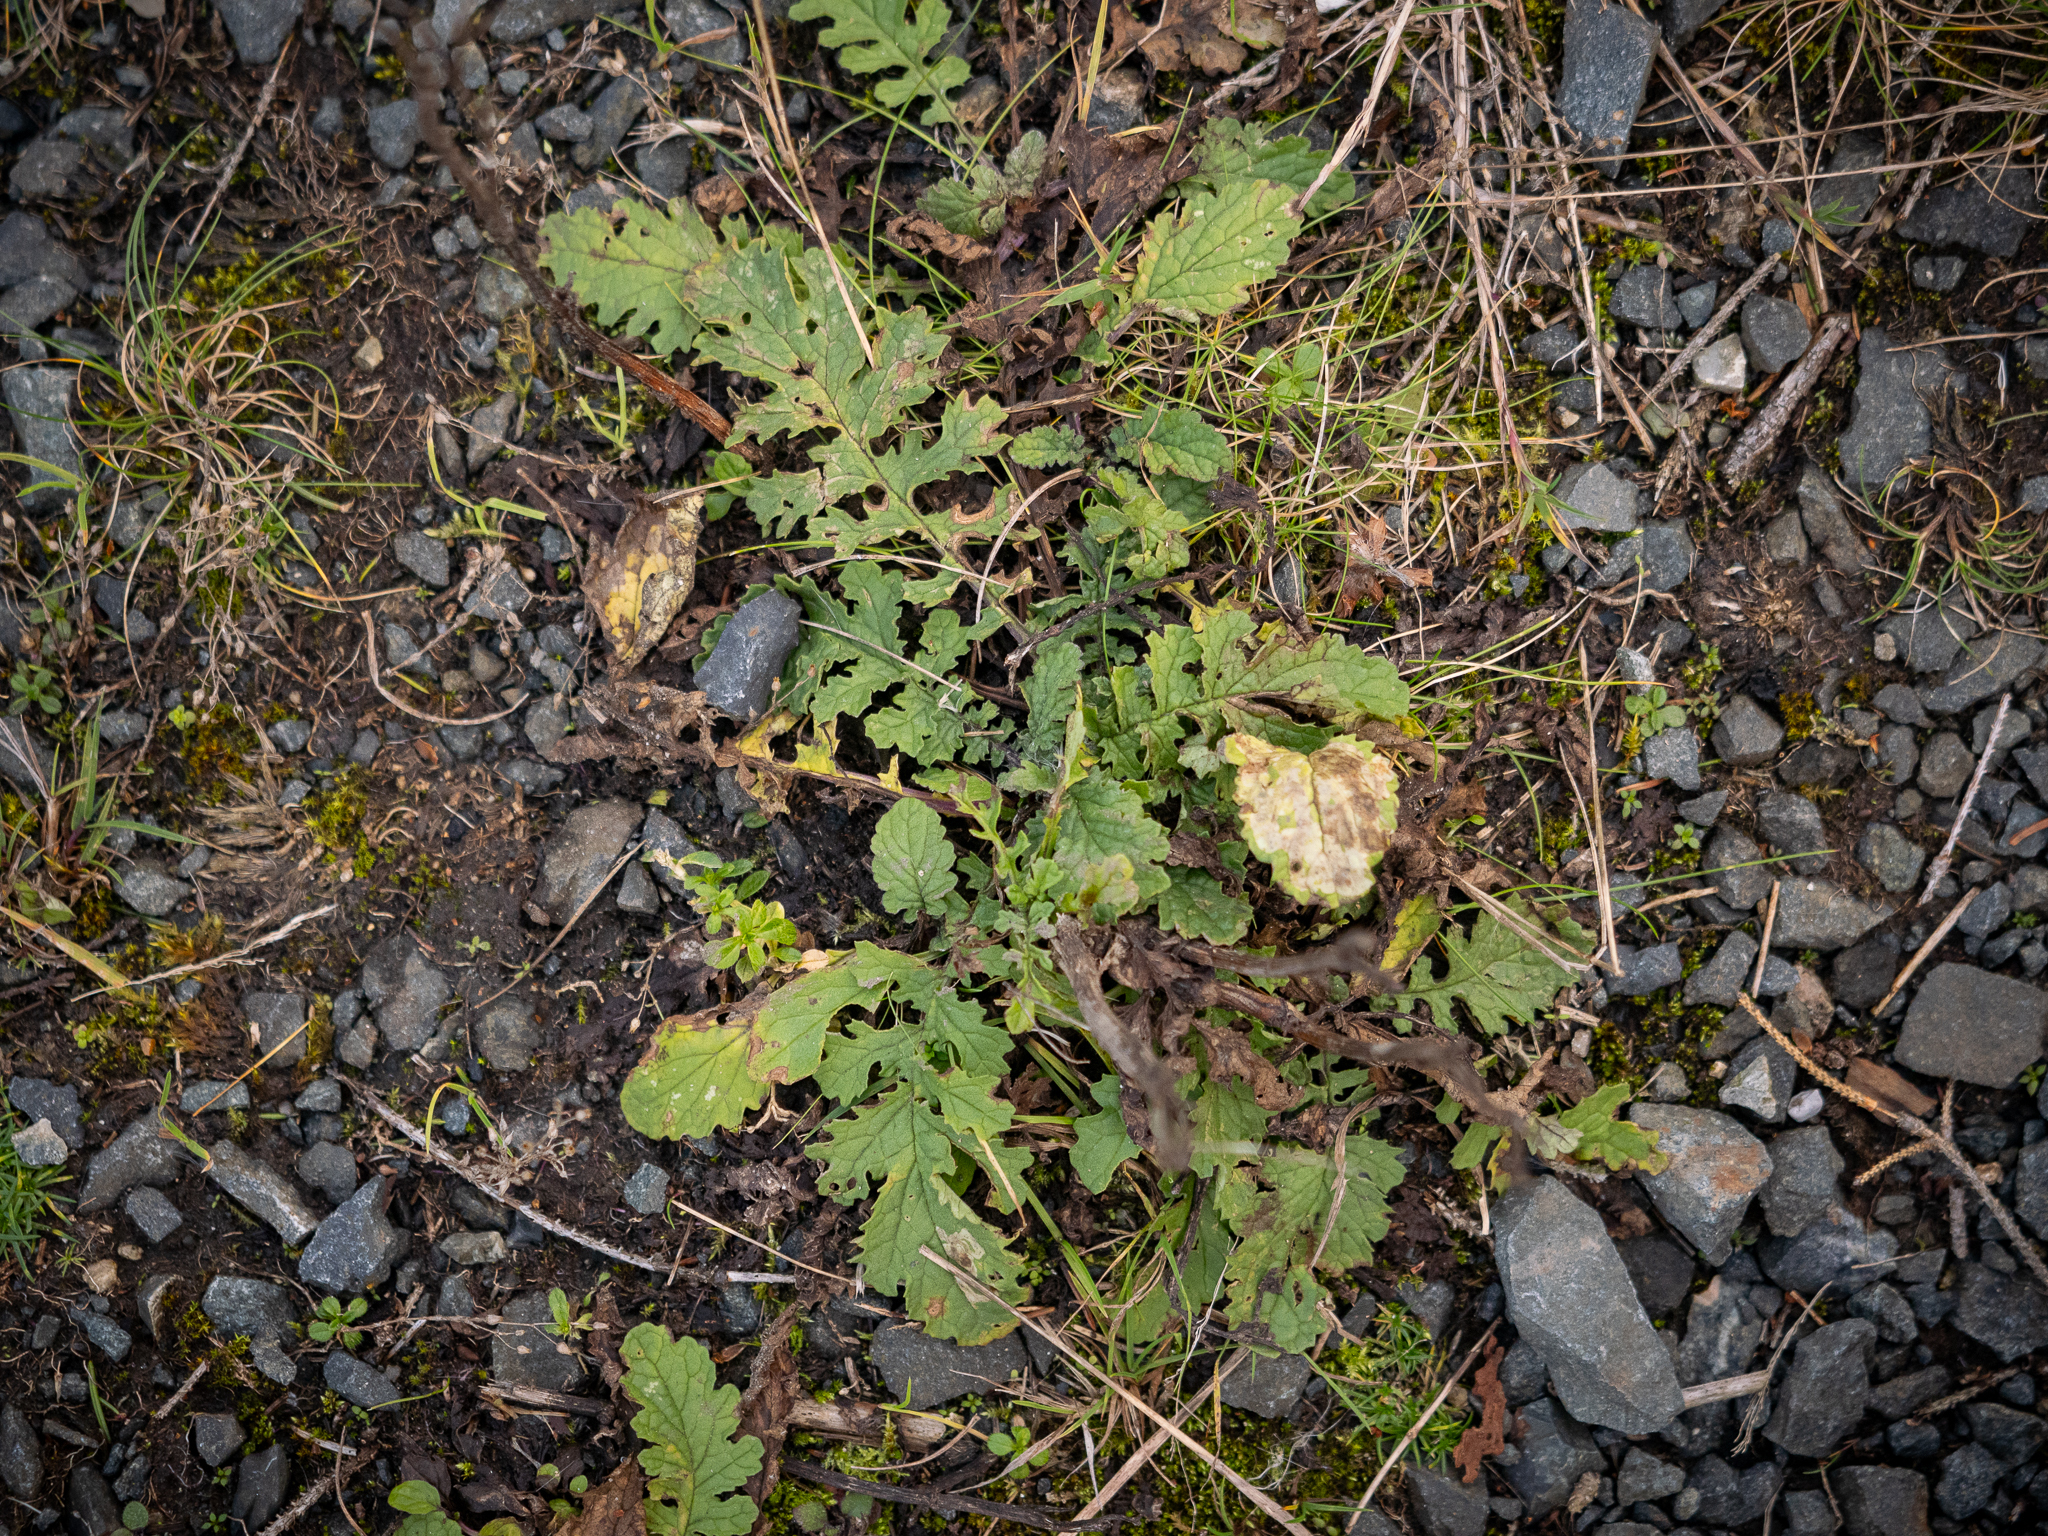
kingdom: Plantae
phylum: Tracheophyta
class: Magnoliopsida
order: Asterales
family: Asteraceae
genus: Jacobaea
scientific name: Jacobaea vulgaris
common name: Stinking willie
